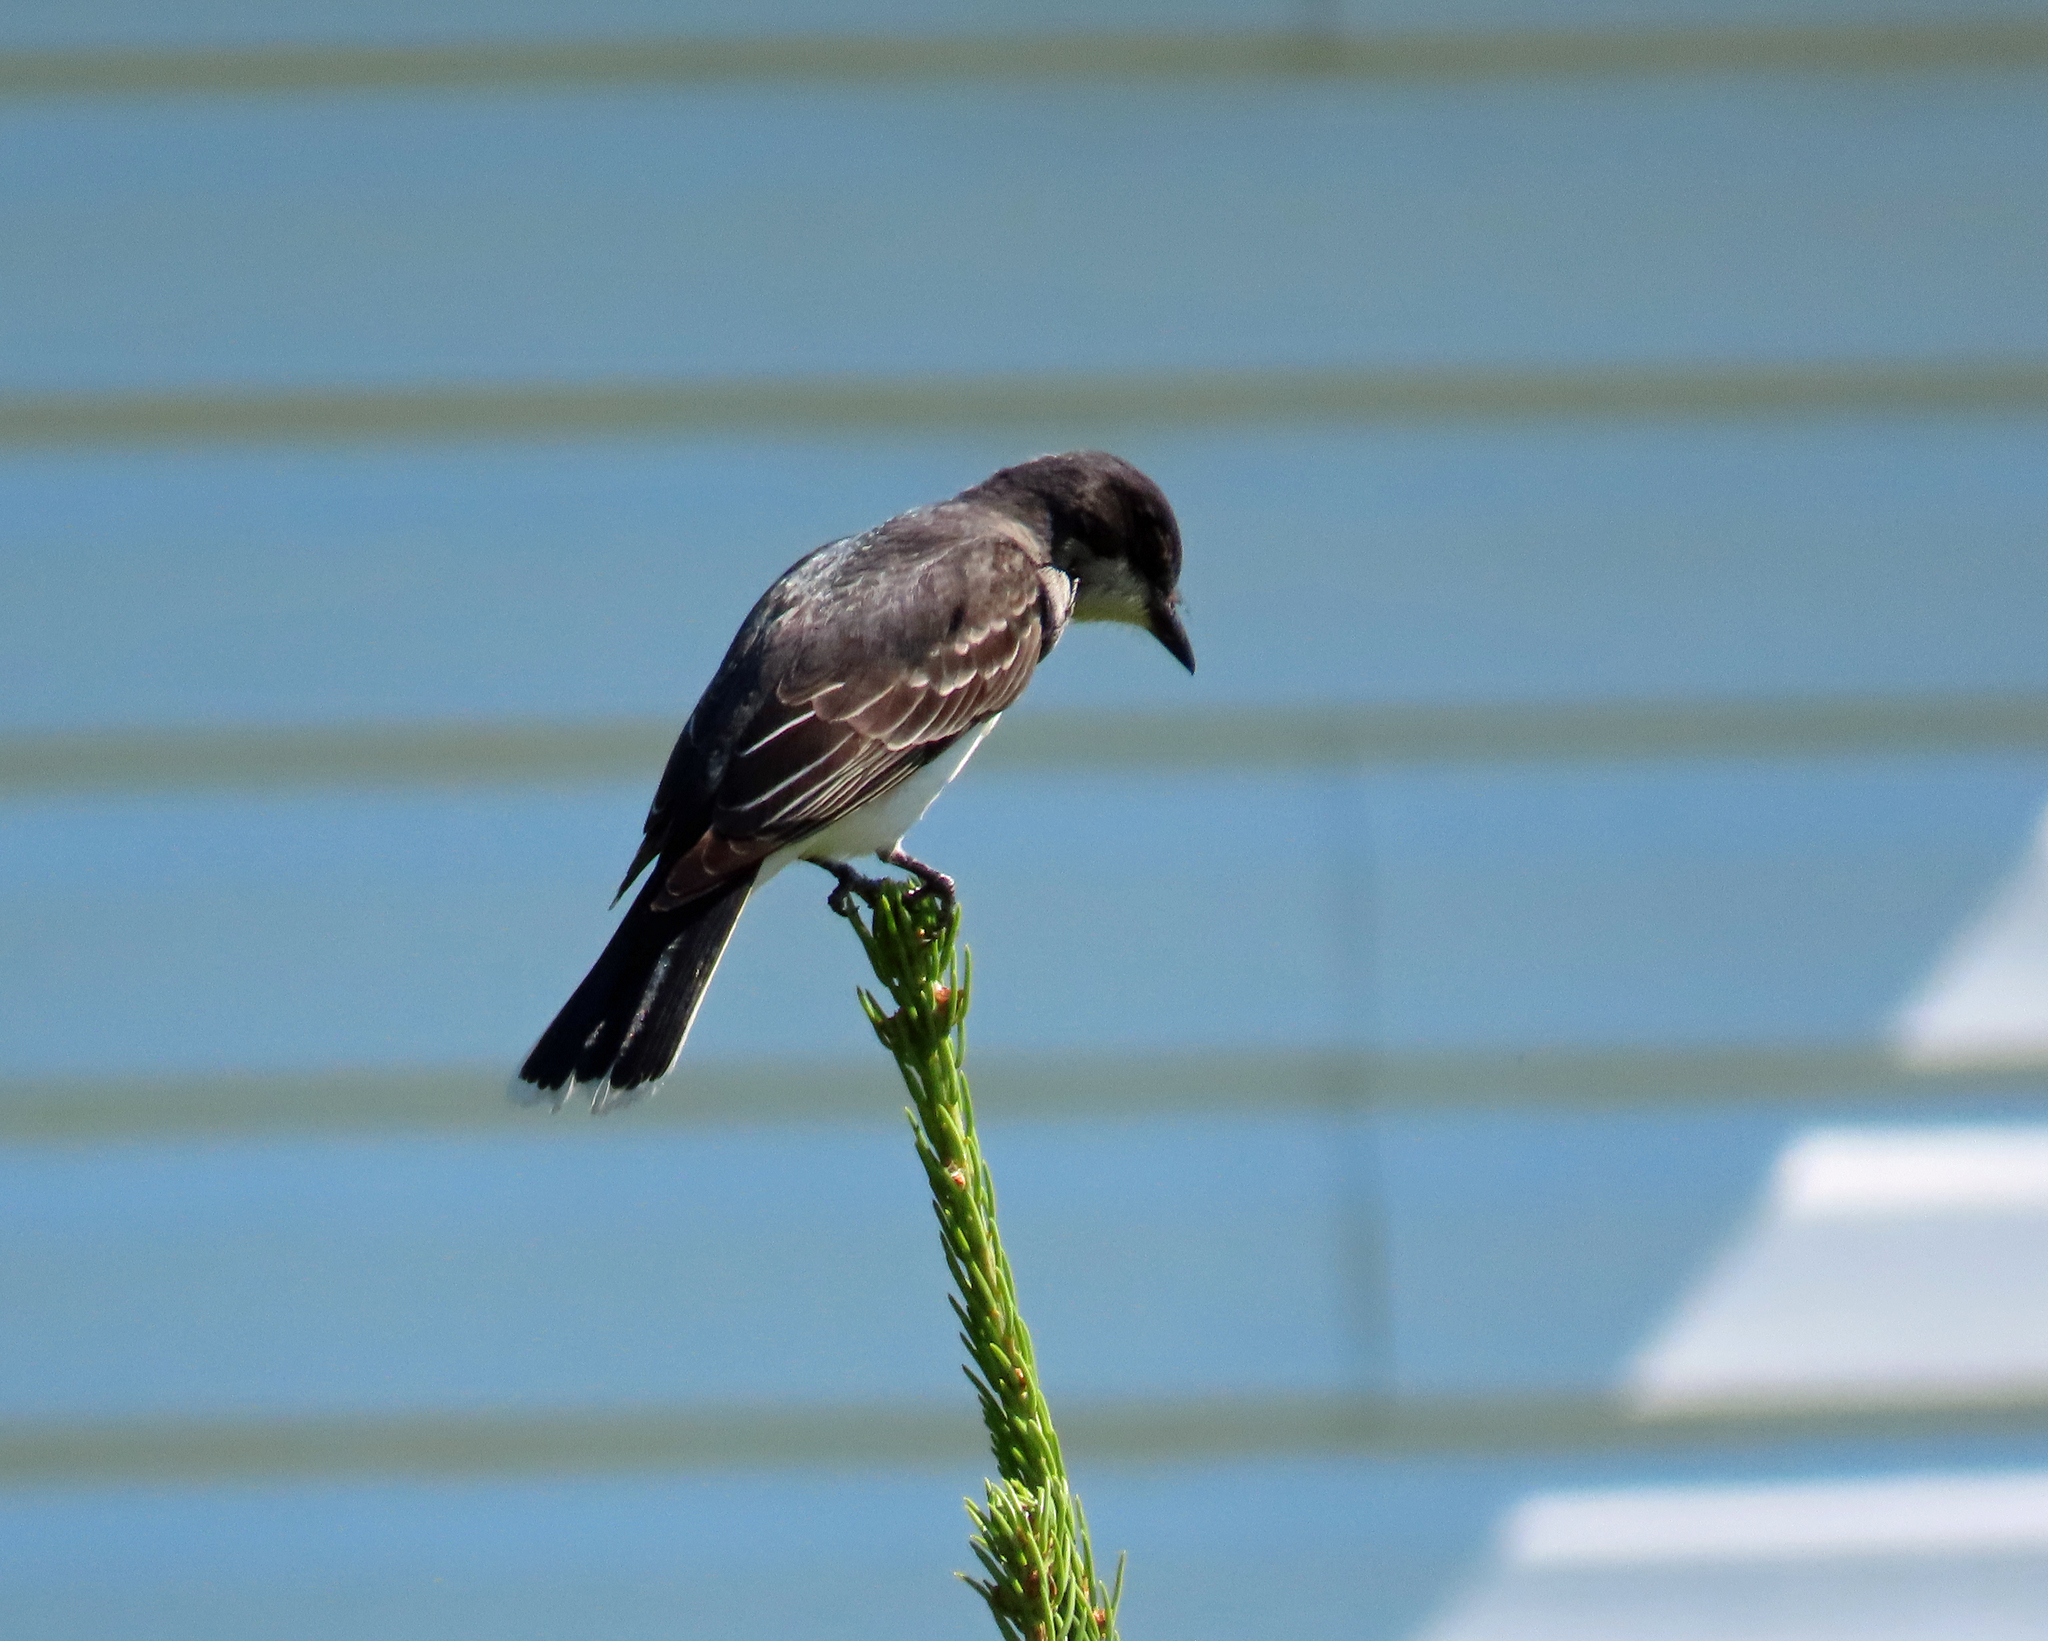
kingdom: Animalia
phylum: Chordata
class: Aves
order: Passeriformes
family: Tyrannidae
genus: Tyrannus
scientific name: Tyrannus tyrannus
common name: Eastern kingbird
